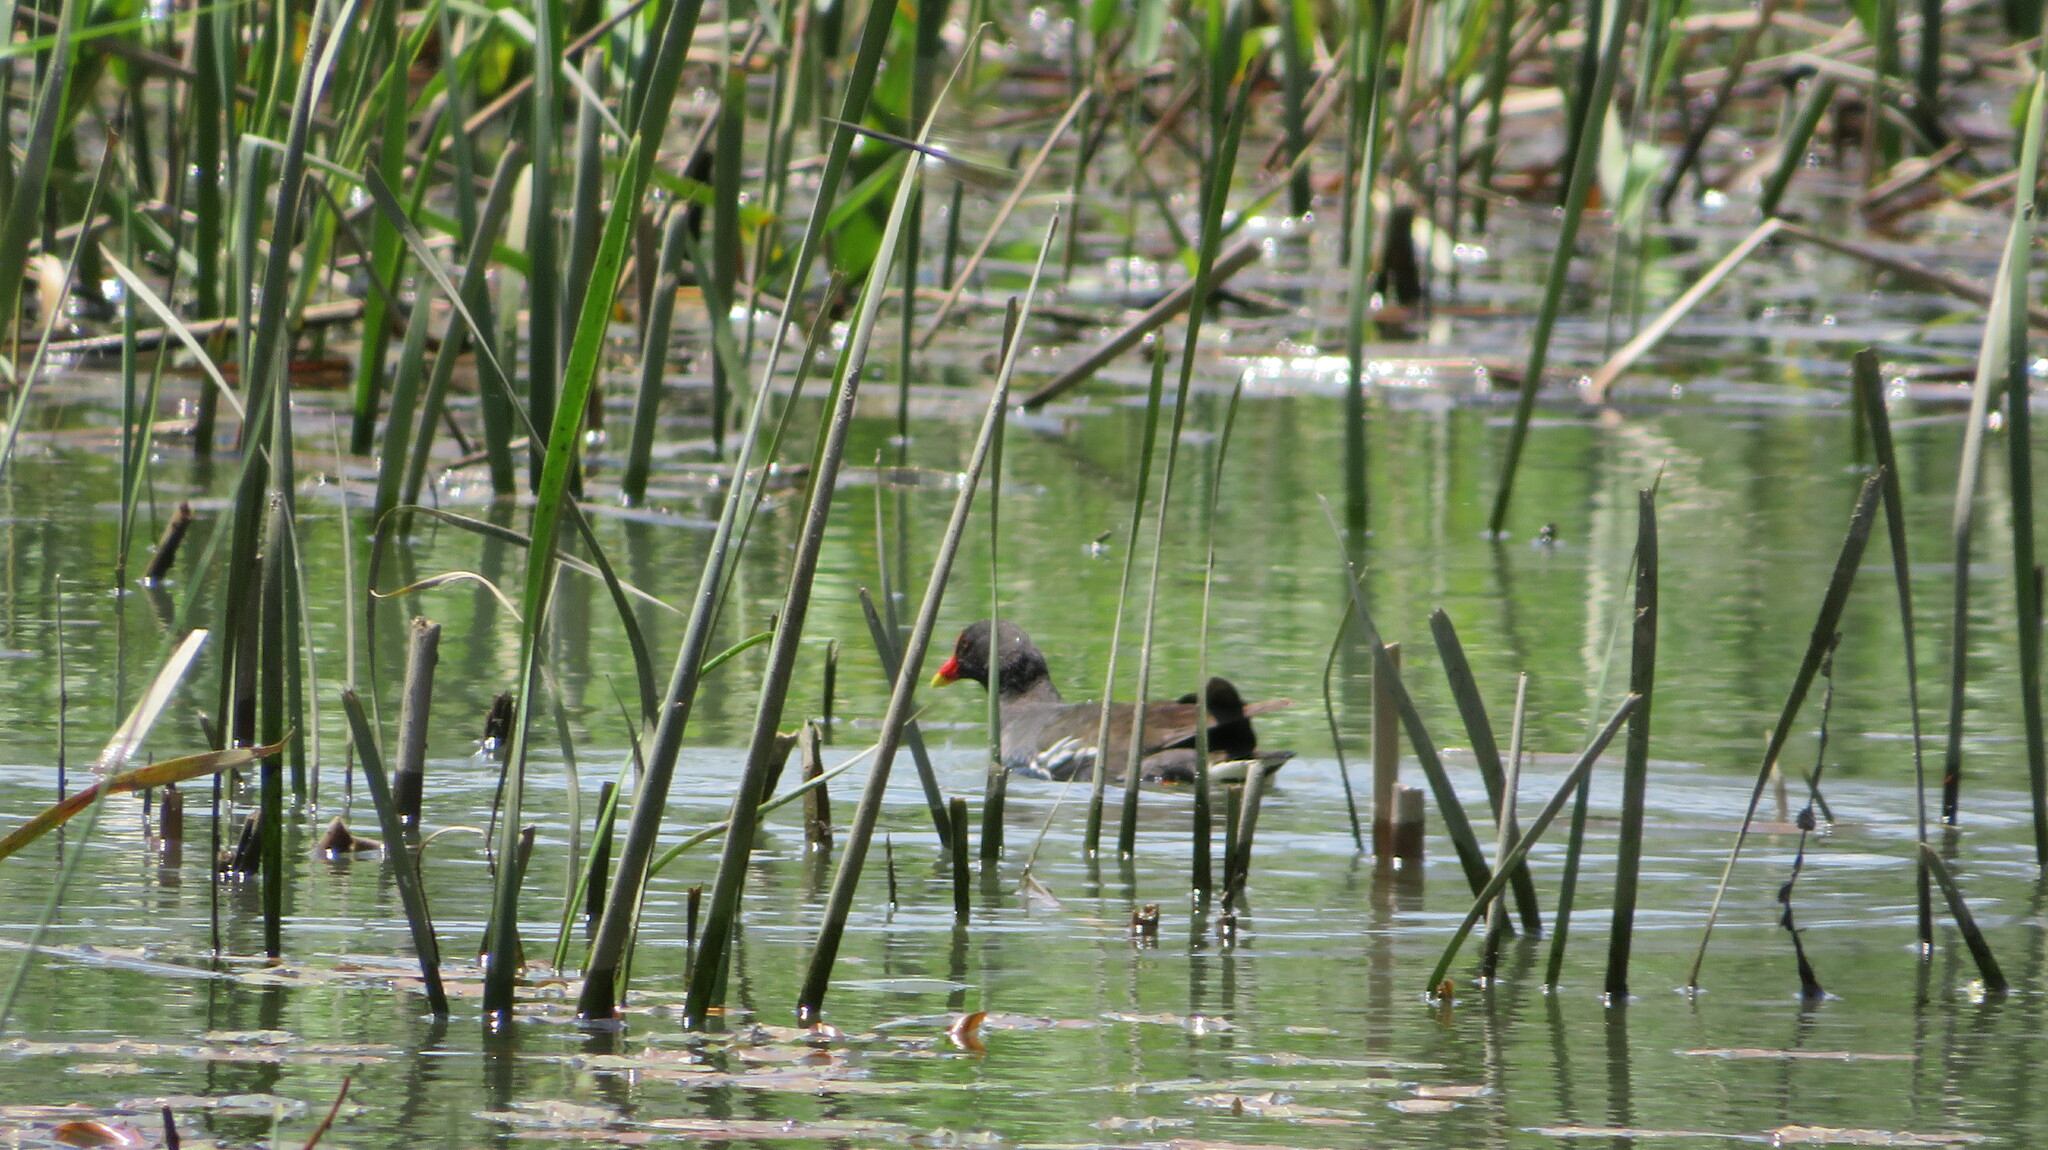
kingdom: Animalia
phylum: Chordata
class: Aves
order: Gruiformes
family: Rallidae
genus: Gallinula
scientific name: Gallinula chloropus
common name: Common moorhen
